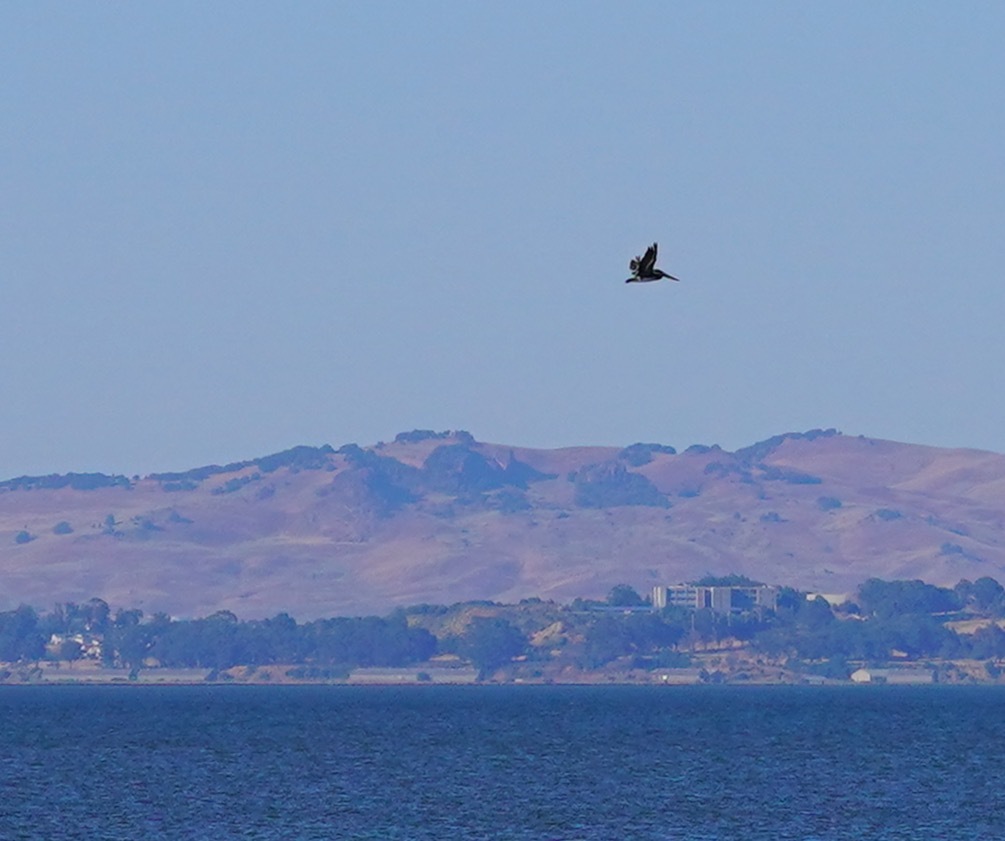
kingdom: Animalia
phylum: Chordata
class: Aves
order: Pelecaniformes
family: Pelecanidae
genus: Pelecanus
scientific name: Pelecanus occidentalis
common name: Brown pelican
